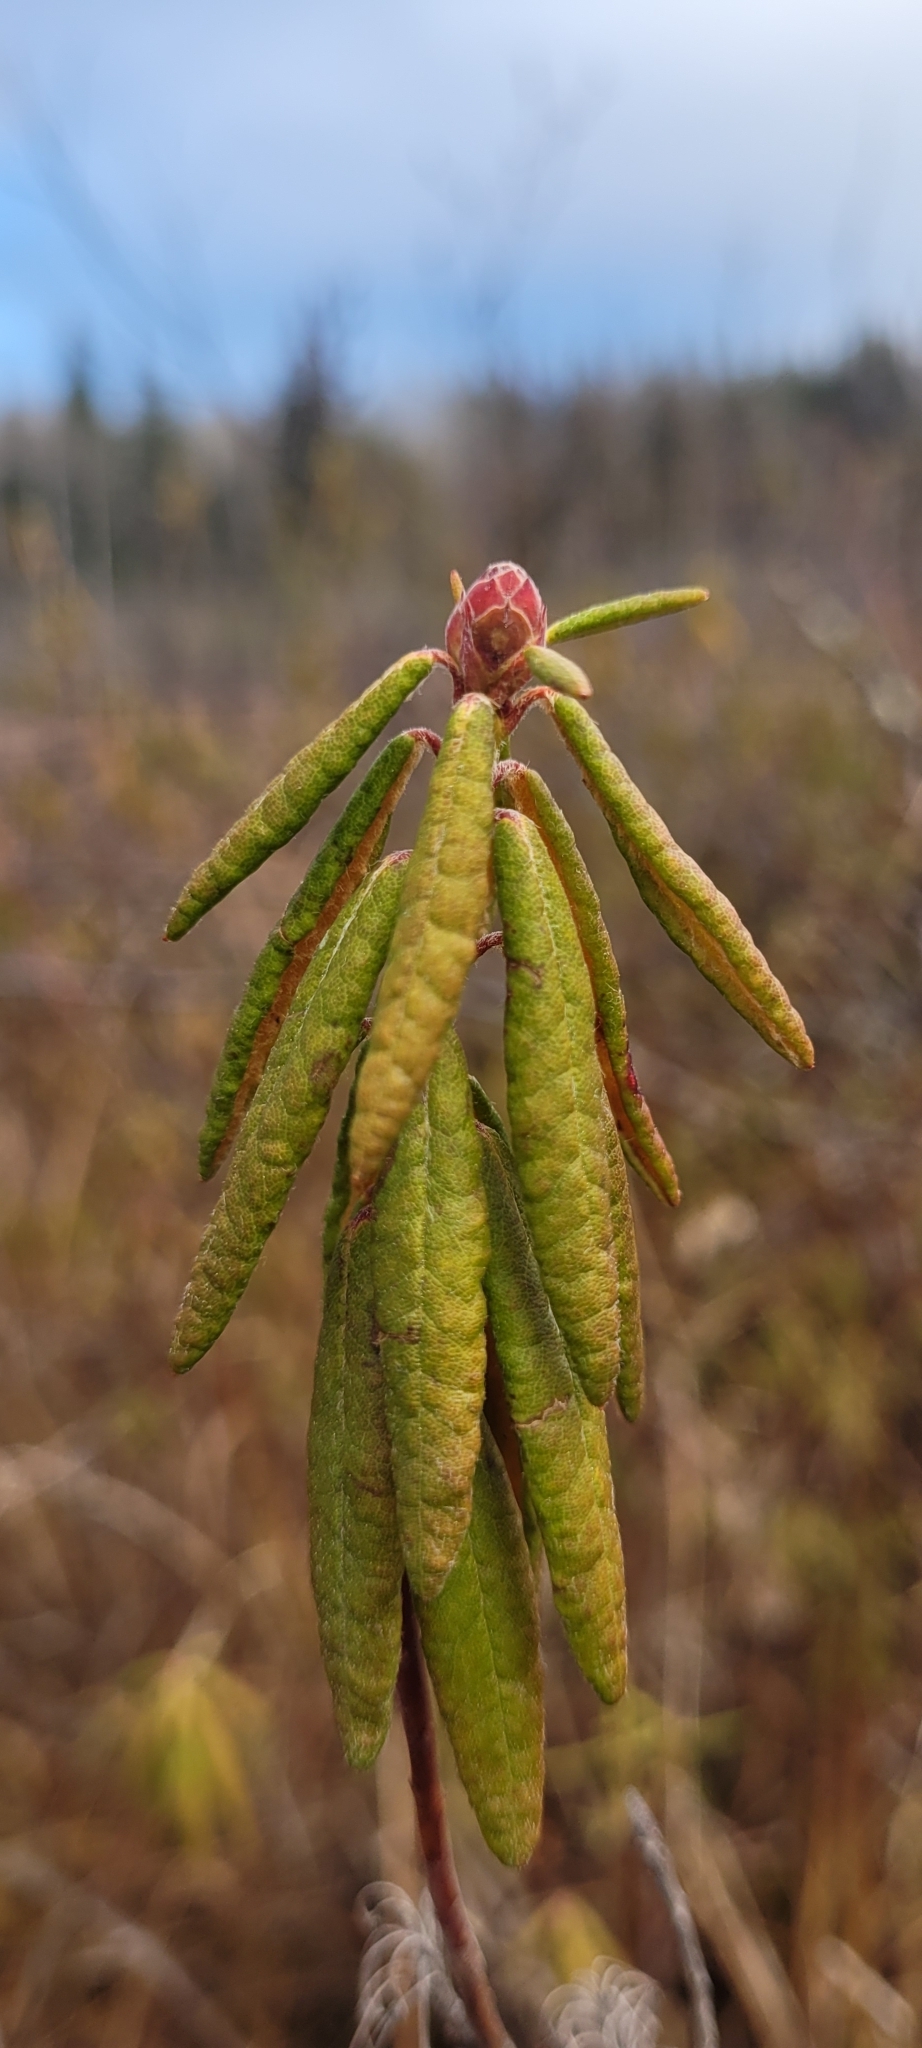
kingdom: Plantae
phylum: Tracheophyta
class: Magnoliopsida
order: Ericales
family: Ericaceae
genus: Rhododendron
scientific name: Rhododendron groenlandicum
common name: Bog labrador tea
